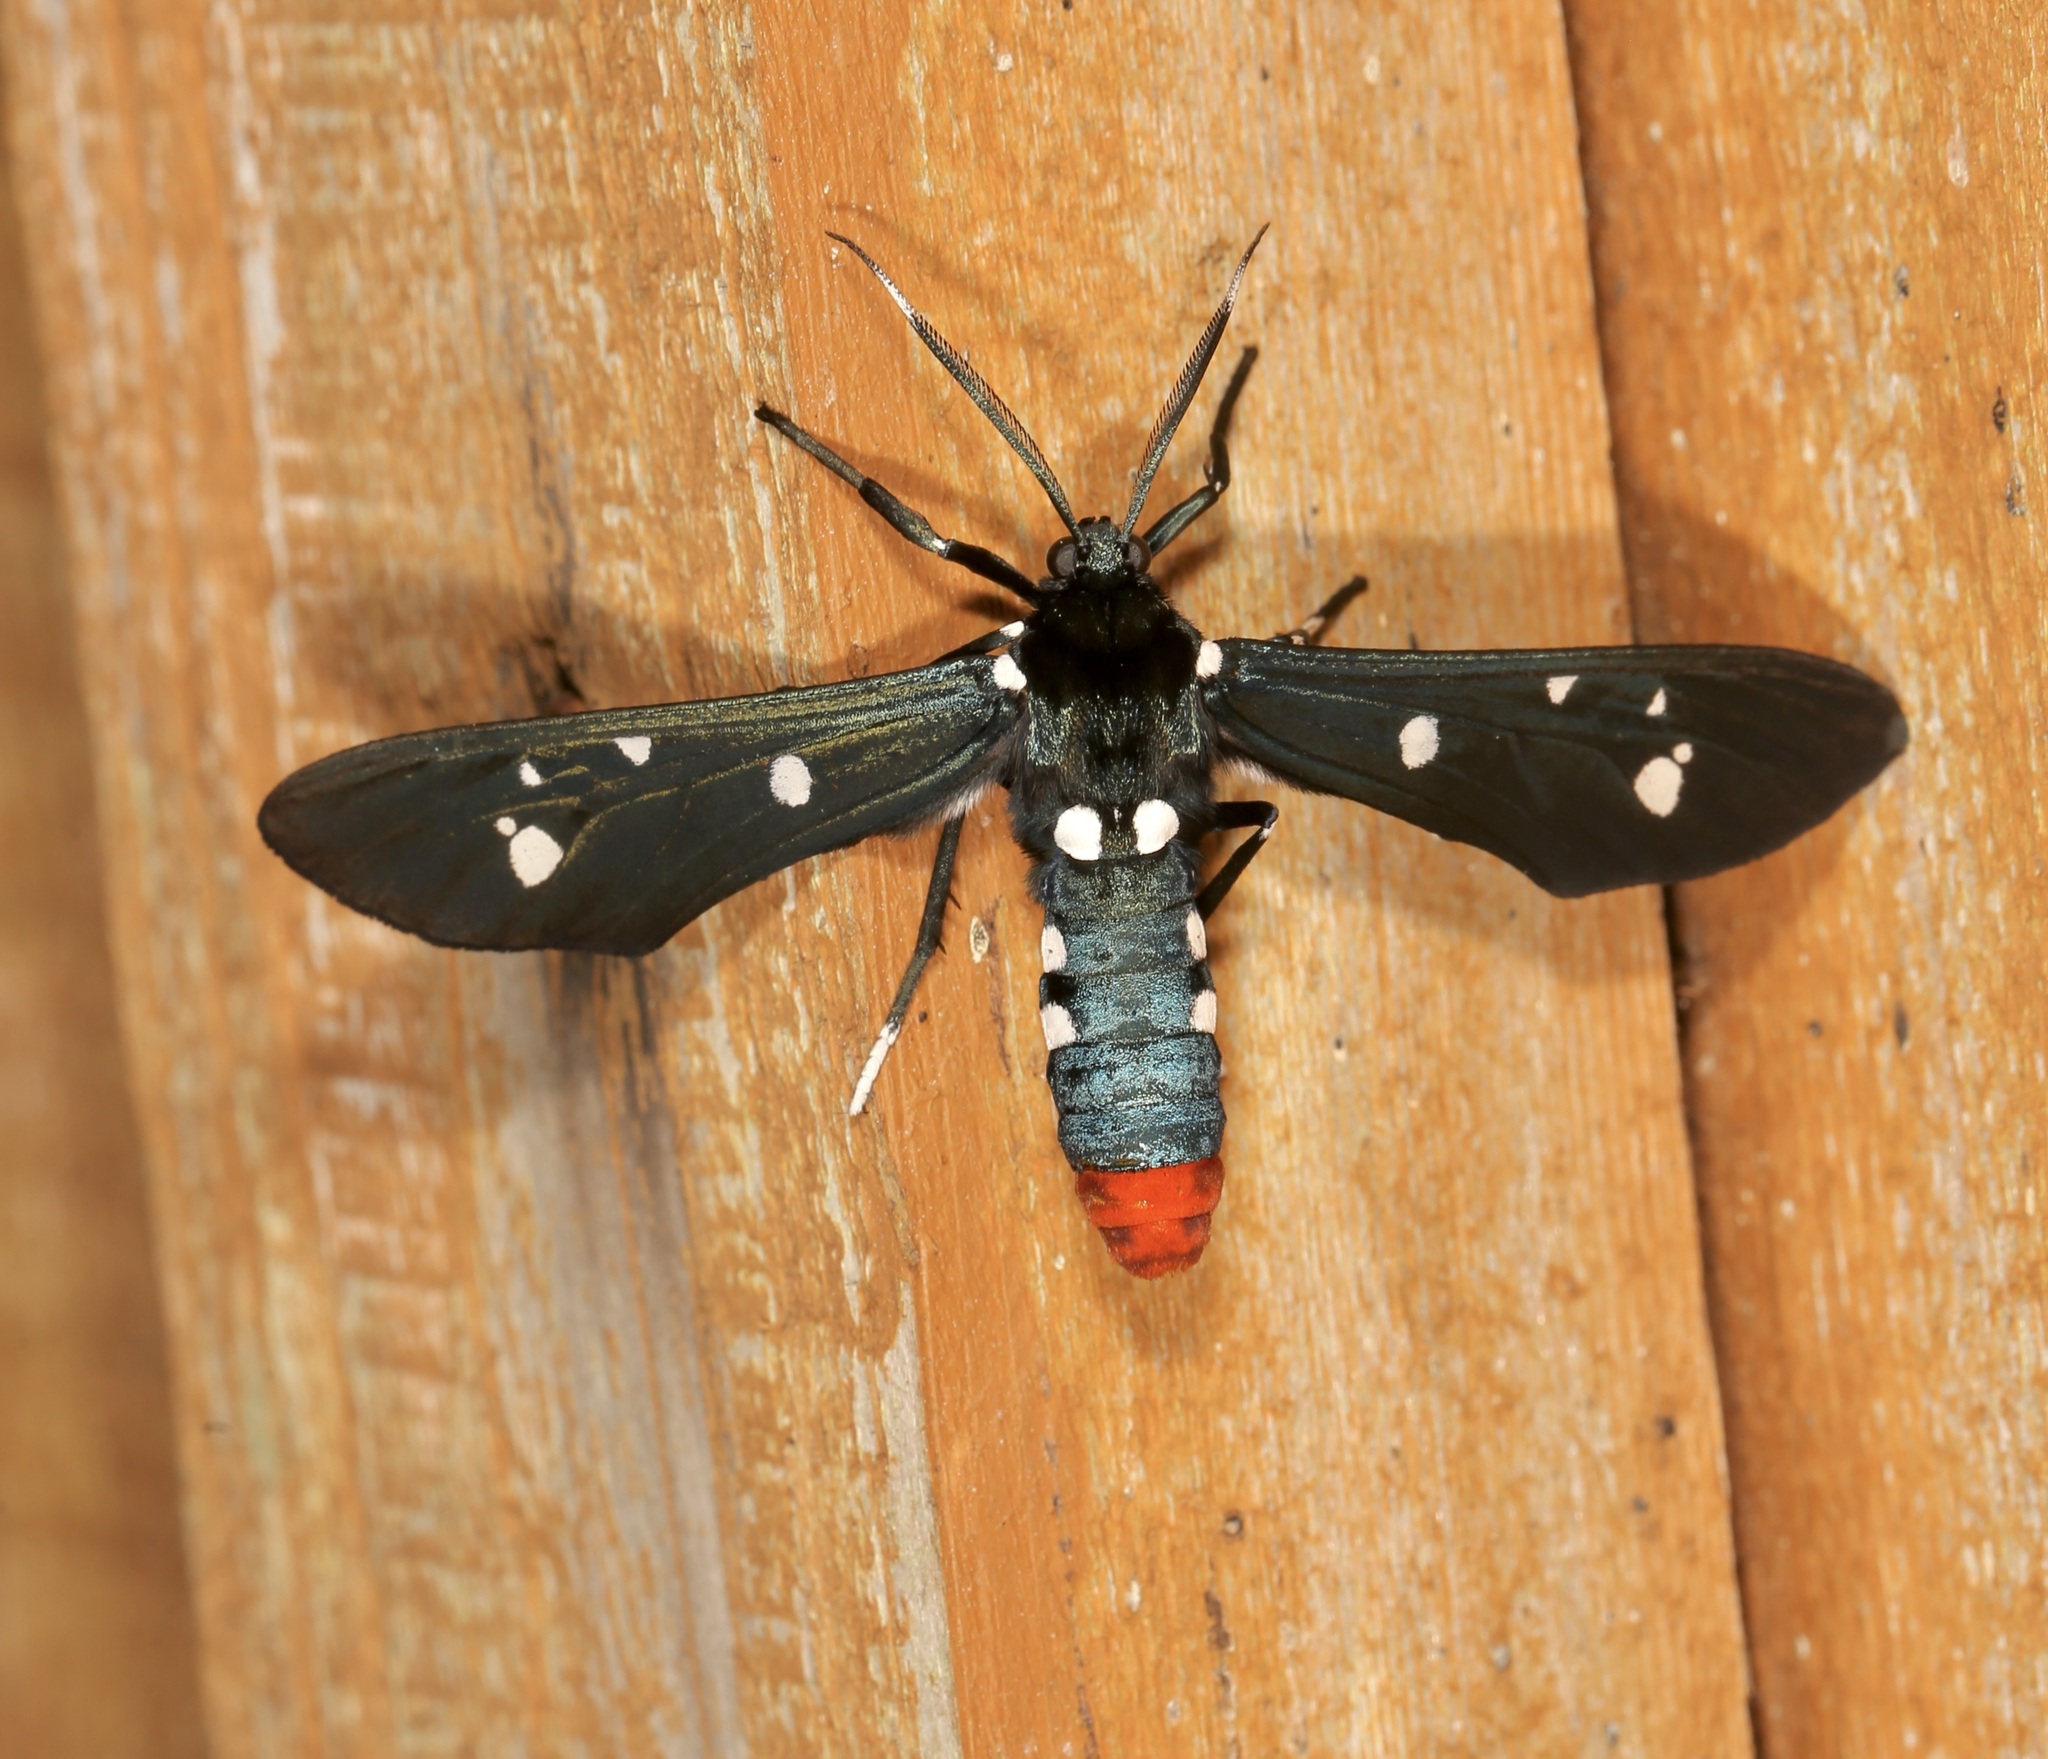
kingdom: Animalia
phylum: Arthropoda
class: Insecta
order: Lepidoptera
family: Erebidae
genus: Syntomeida
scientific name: Syntomeida epilais
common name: Polka-dot wasp moth
